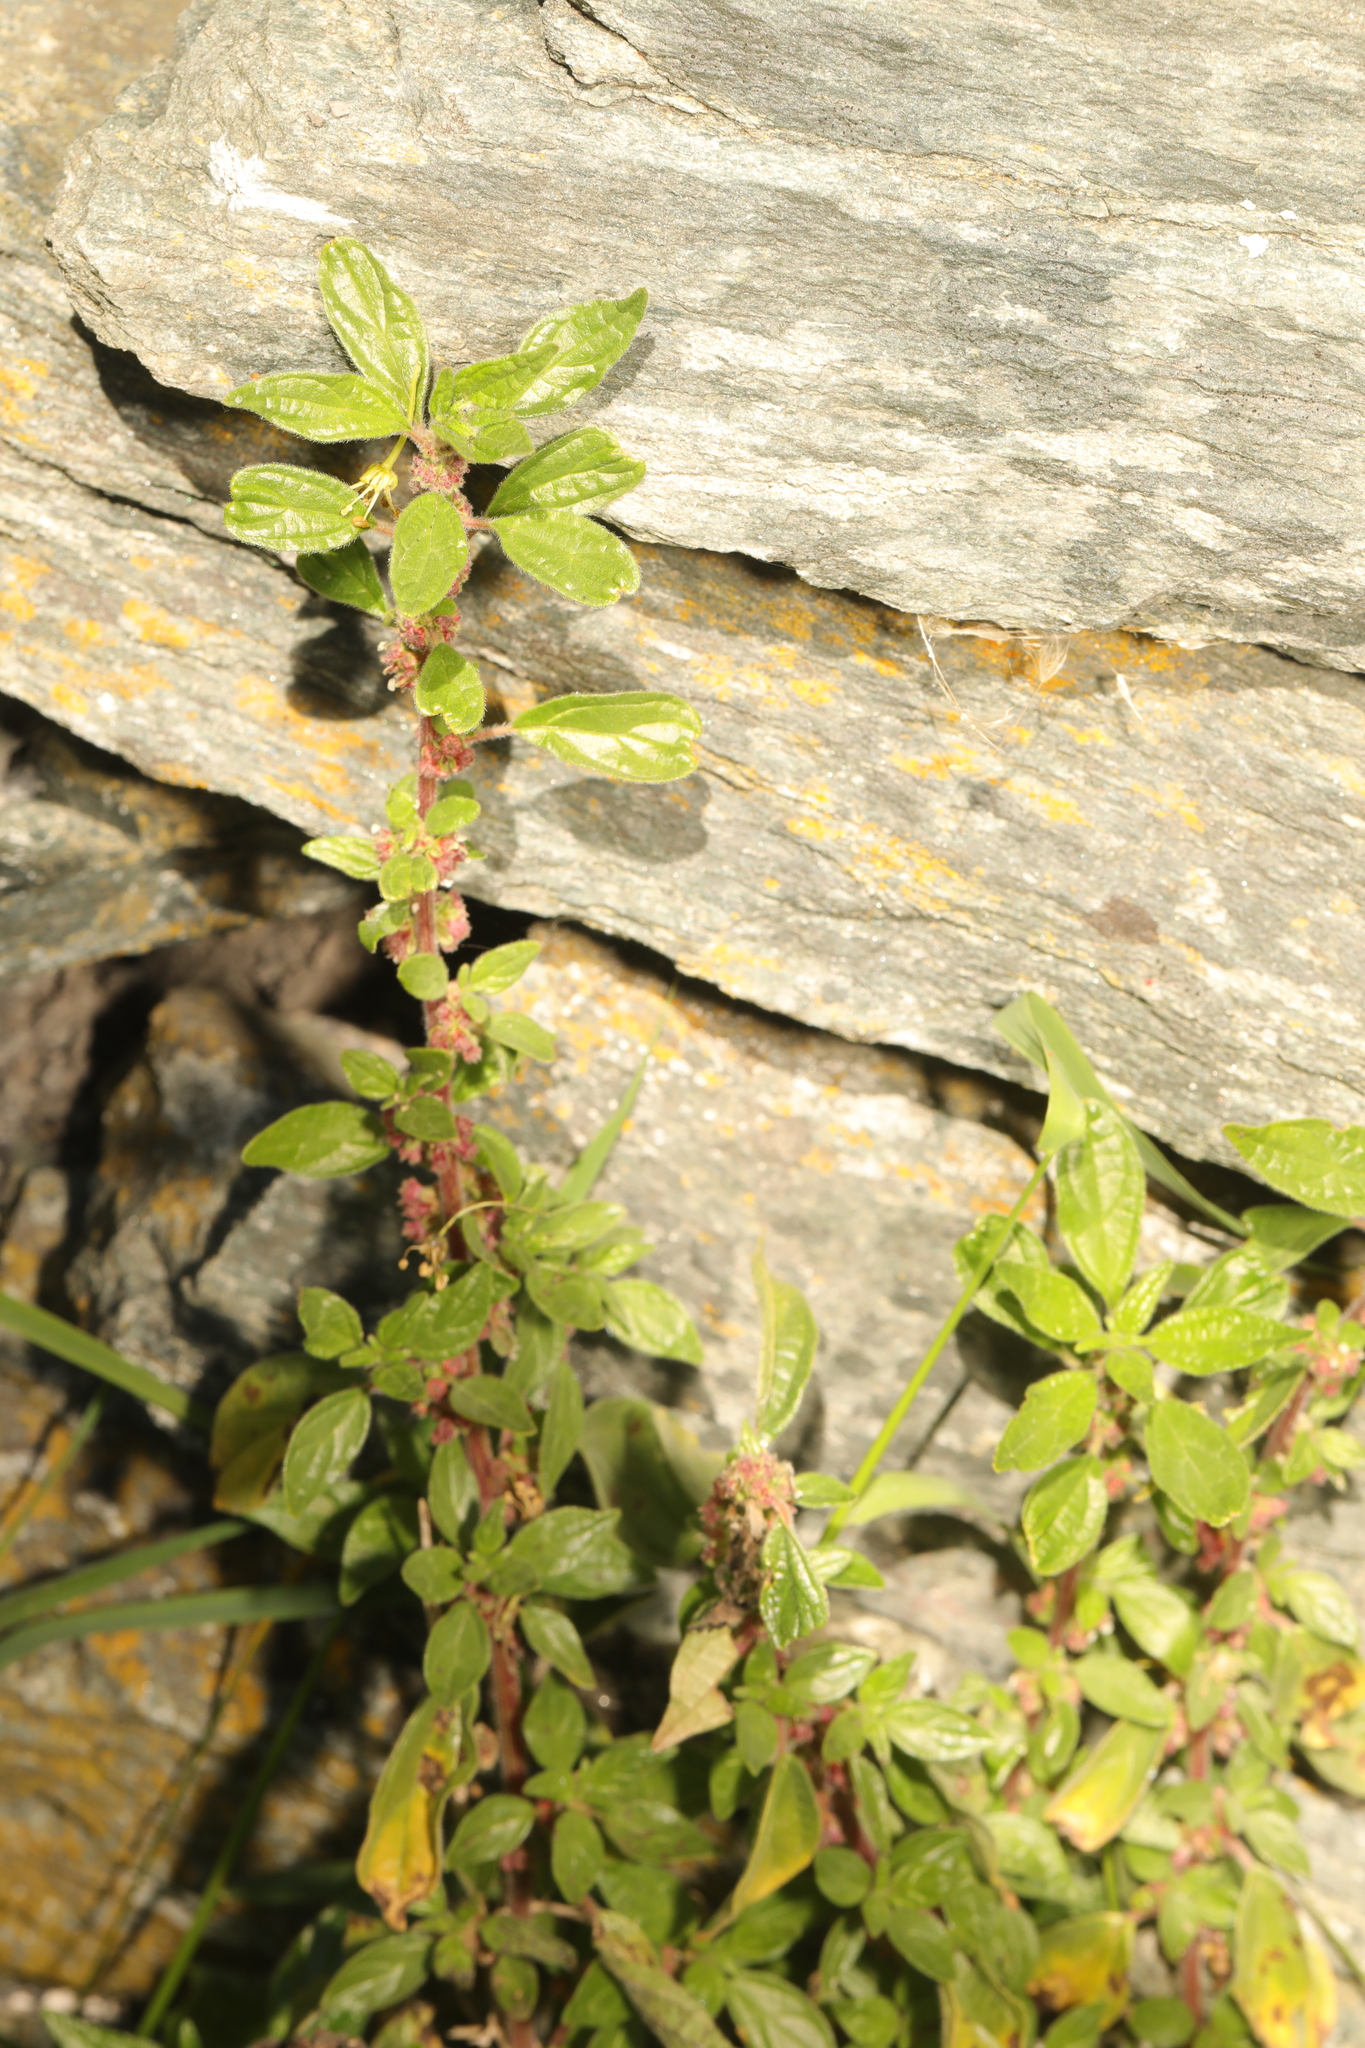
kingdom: Plantae
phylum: Tracheophyta
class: Magnoliopsida
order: Rosales
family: Urticaceae
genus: Parietaria
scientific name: Parietaria judaica
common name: Pellitory-of-the-wall
